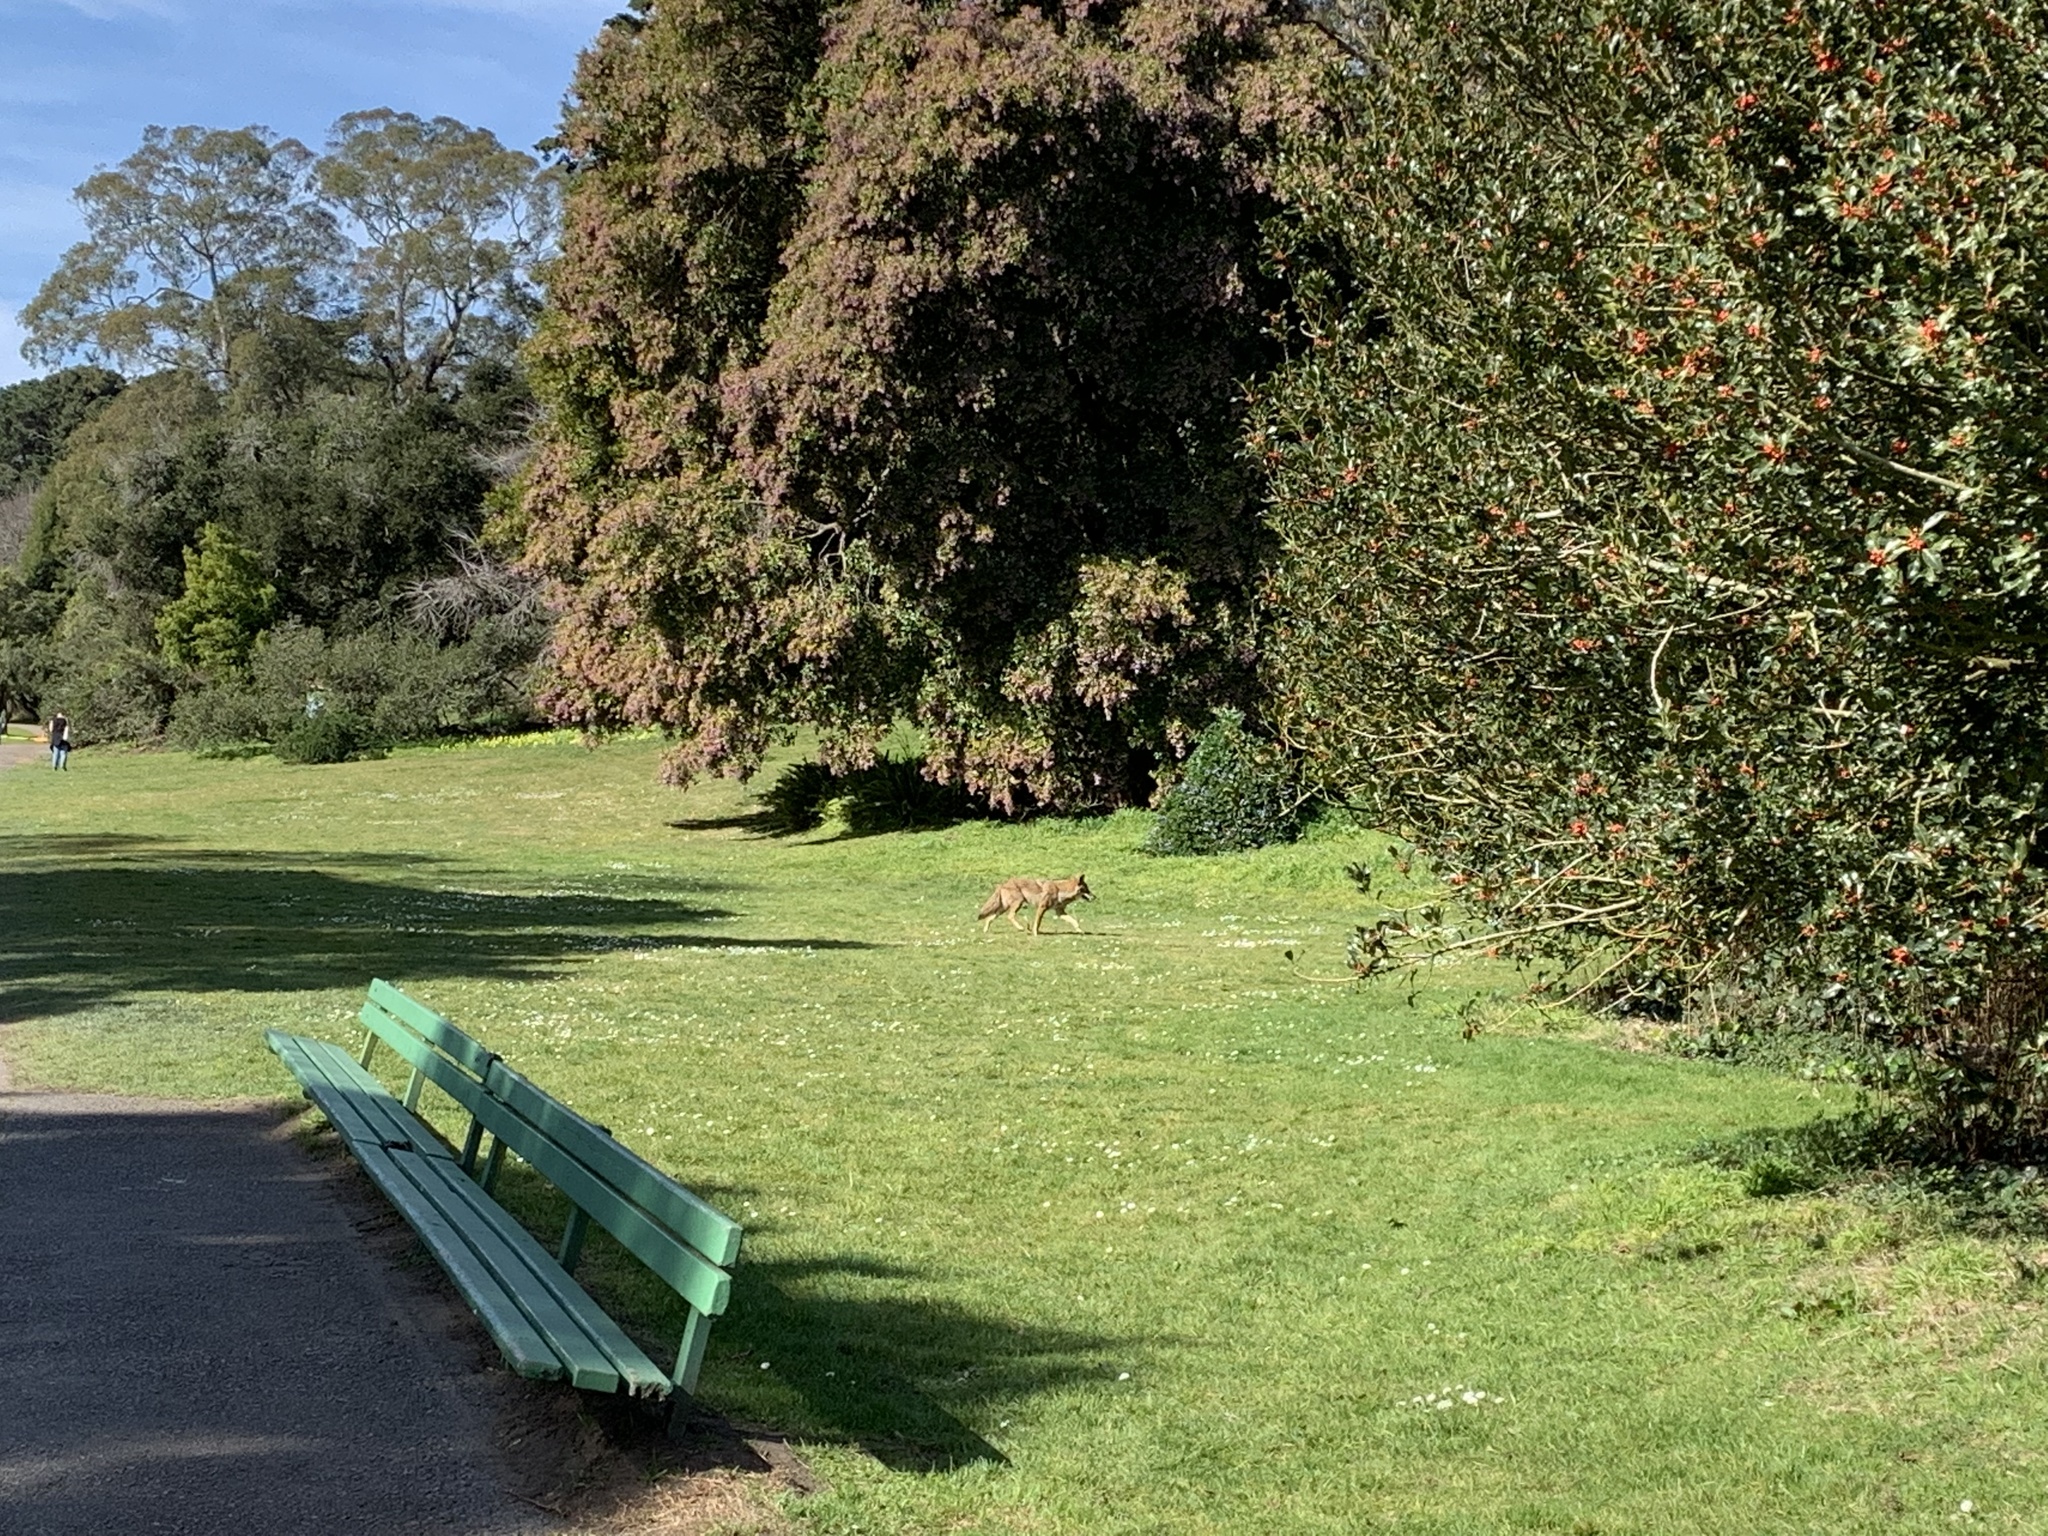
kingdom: Animalia
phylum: Chordata
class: Mammalia
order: Carnivora
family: Canidae
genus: Canis
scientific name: Canis latrans
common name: Coyote
